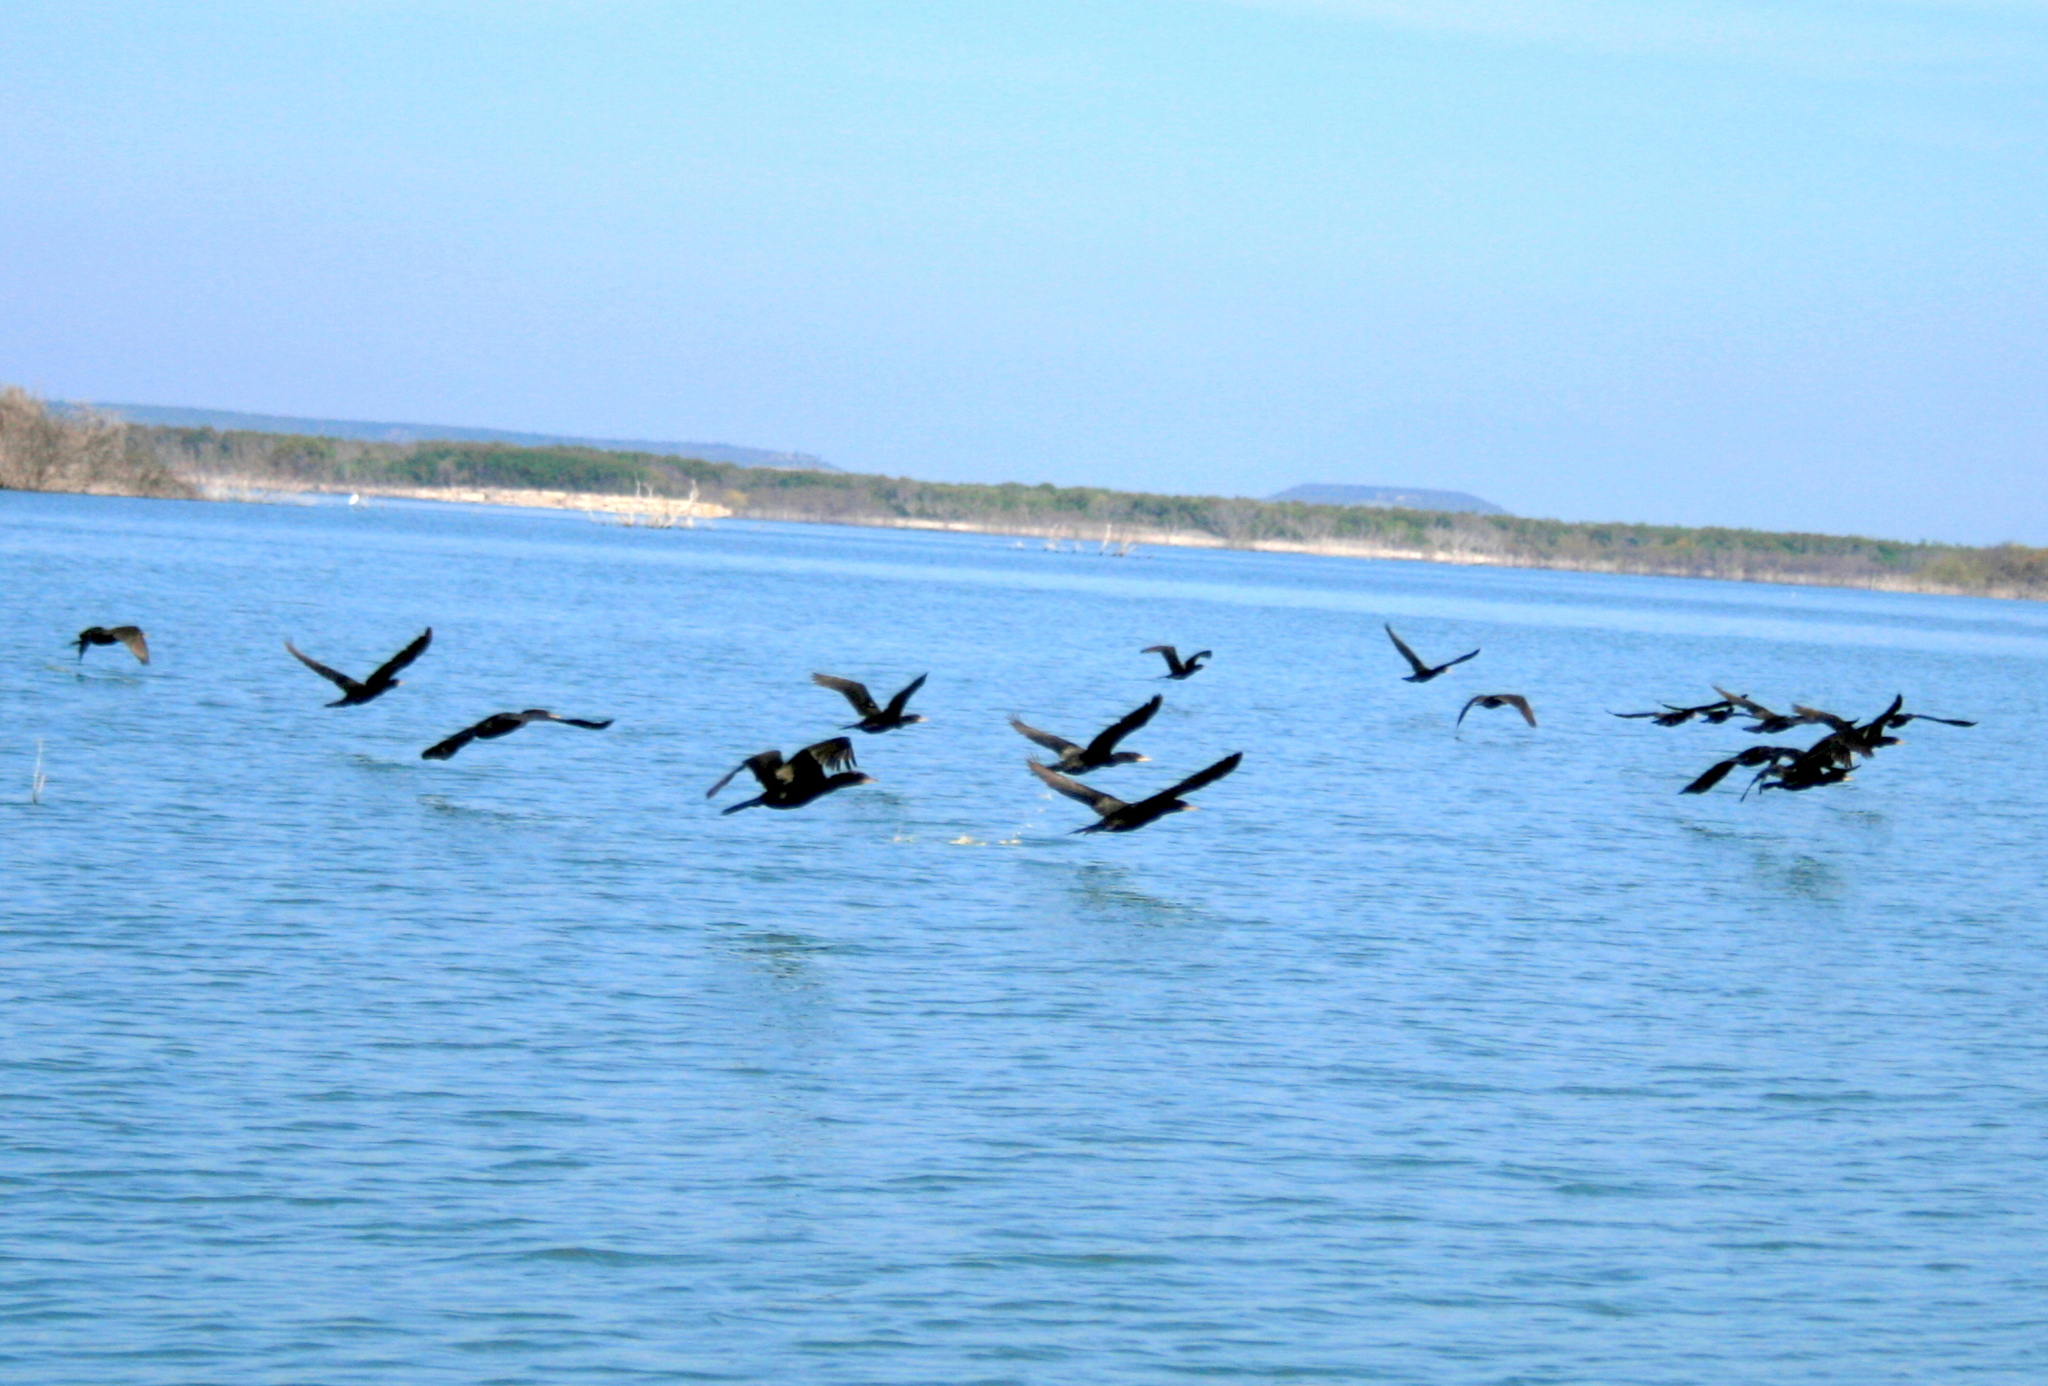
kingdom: Animalia
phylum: Chordata
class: Aves
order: Suliformes
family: Phalacrocoracidae
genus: Phalacrocorax
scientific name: Phalacrocorax auritus
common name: Double-crested cormorant
